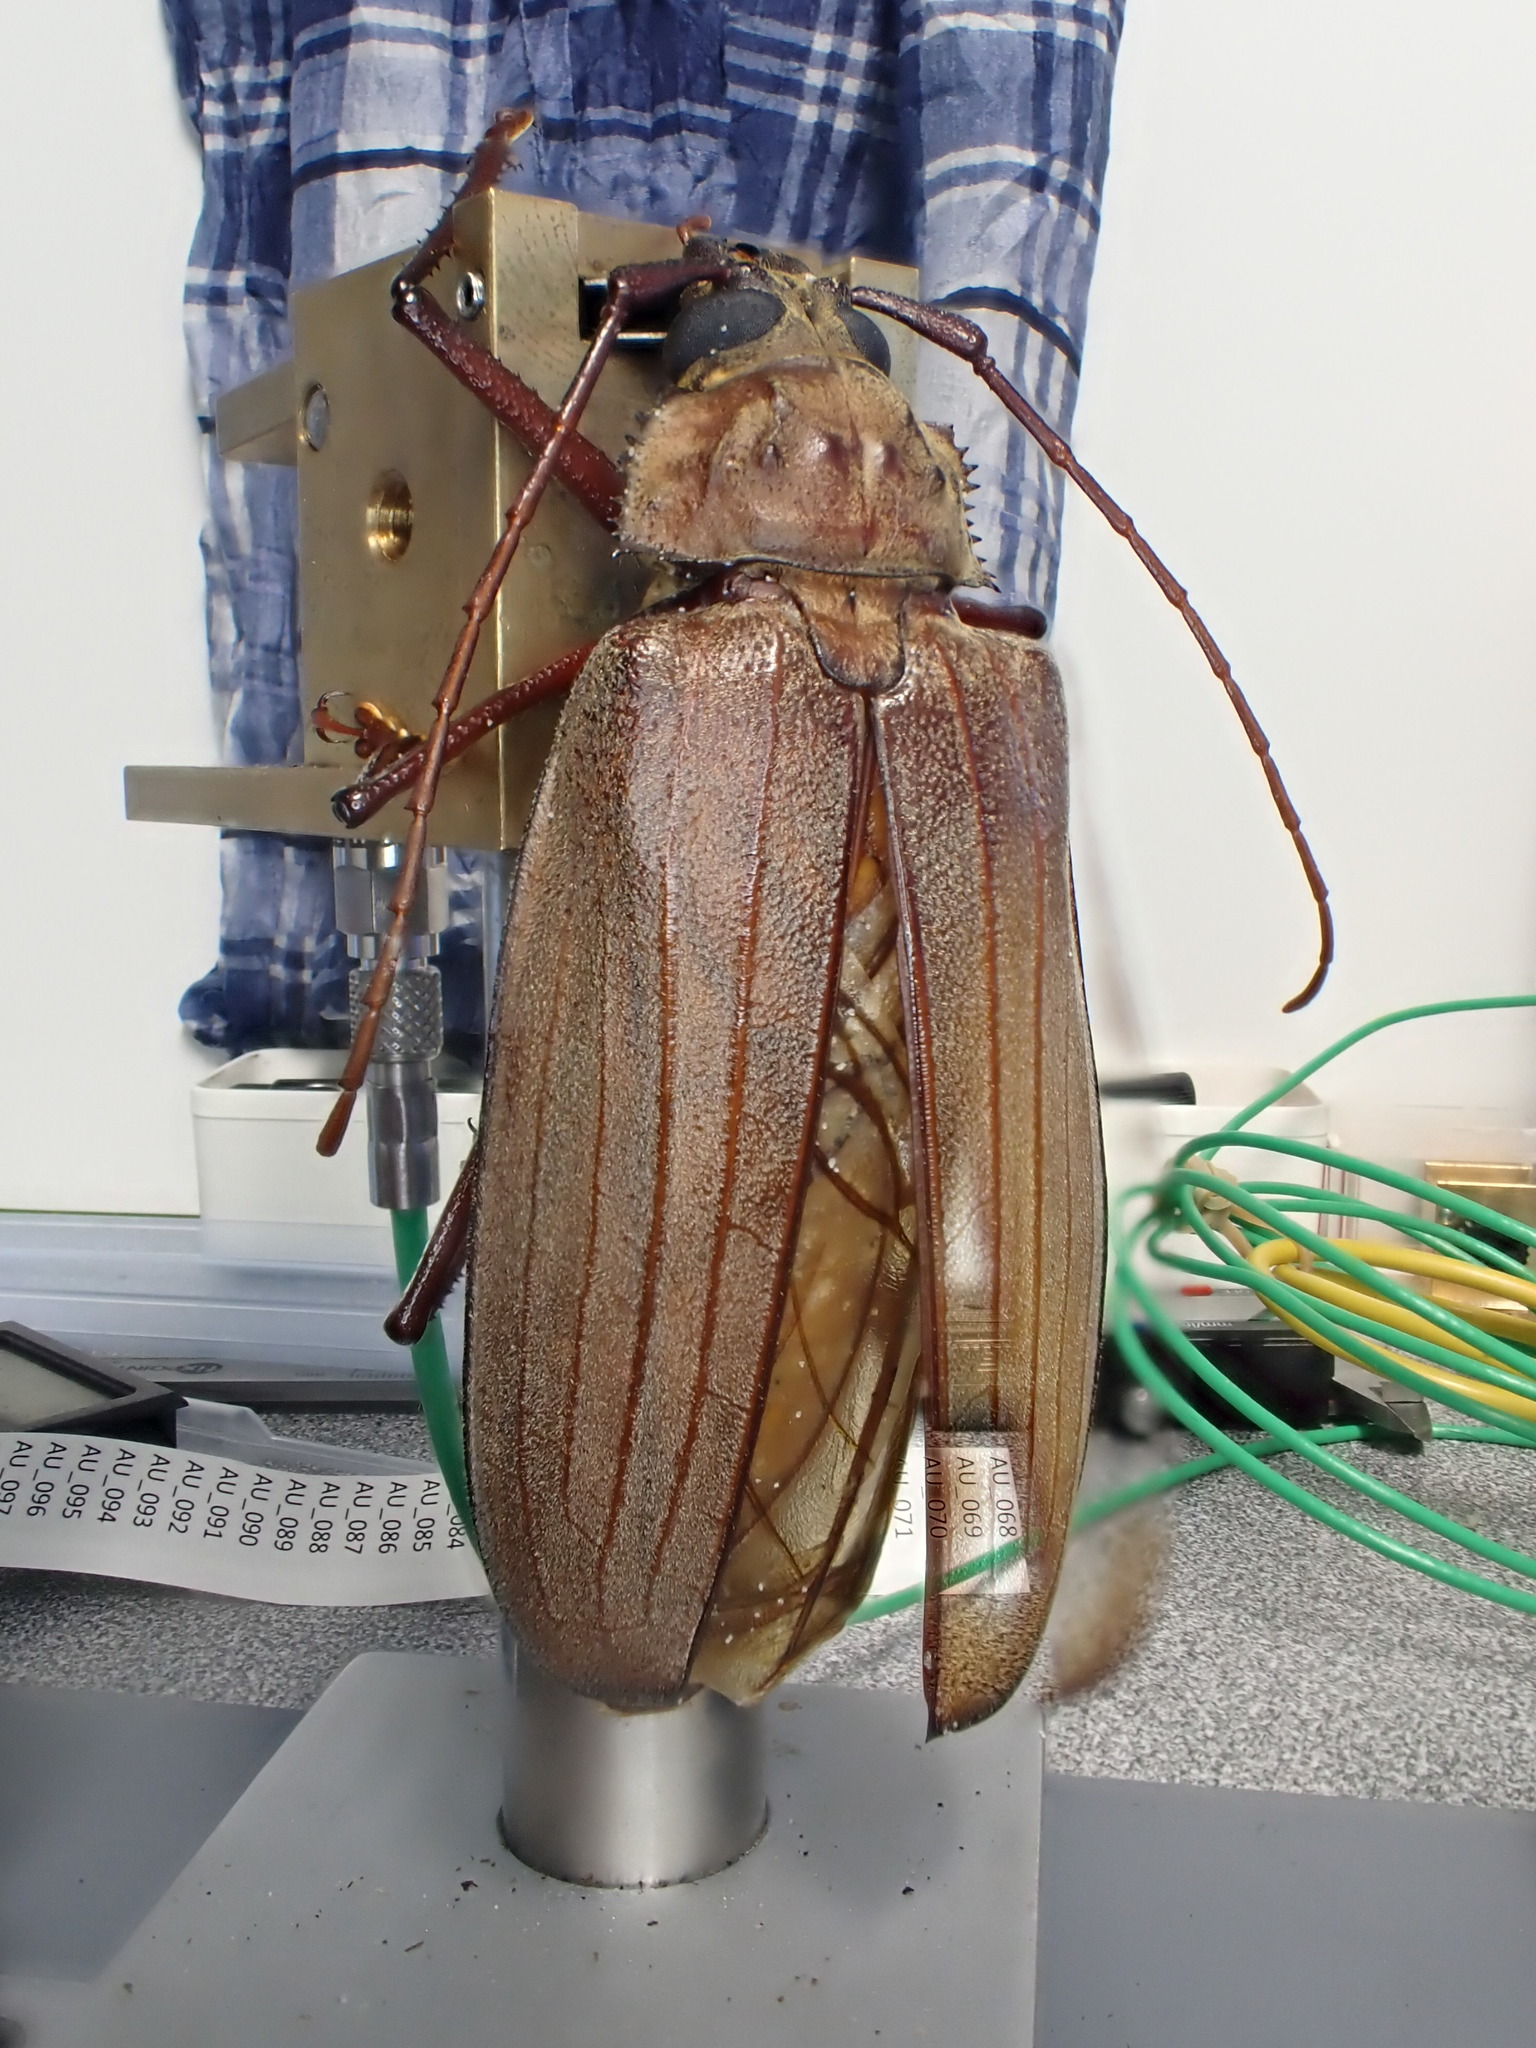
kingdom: Animalia
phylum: Arthropoda
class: Insecta
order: Coleoptera
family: Cerambycidae
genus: Xixuthrus
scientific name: Xixuthrus microcerus
